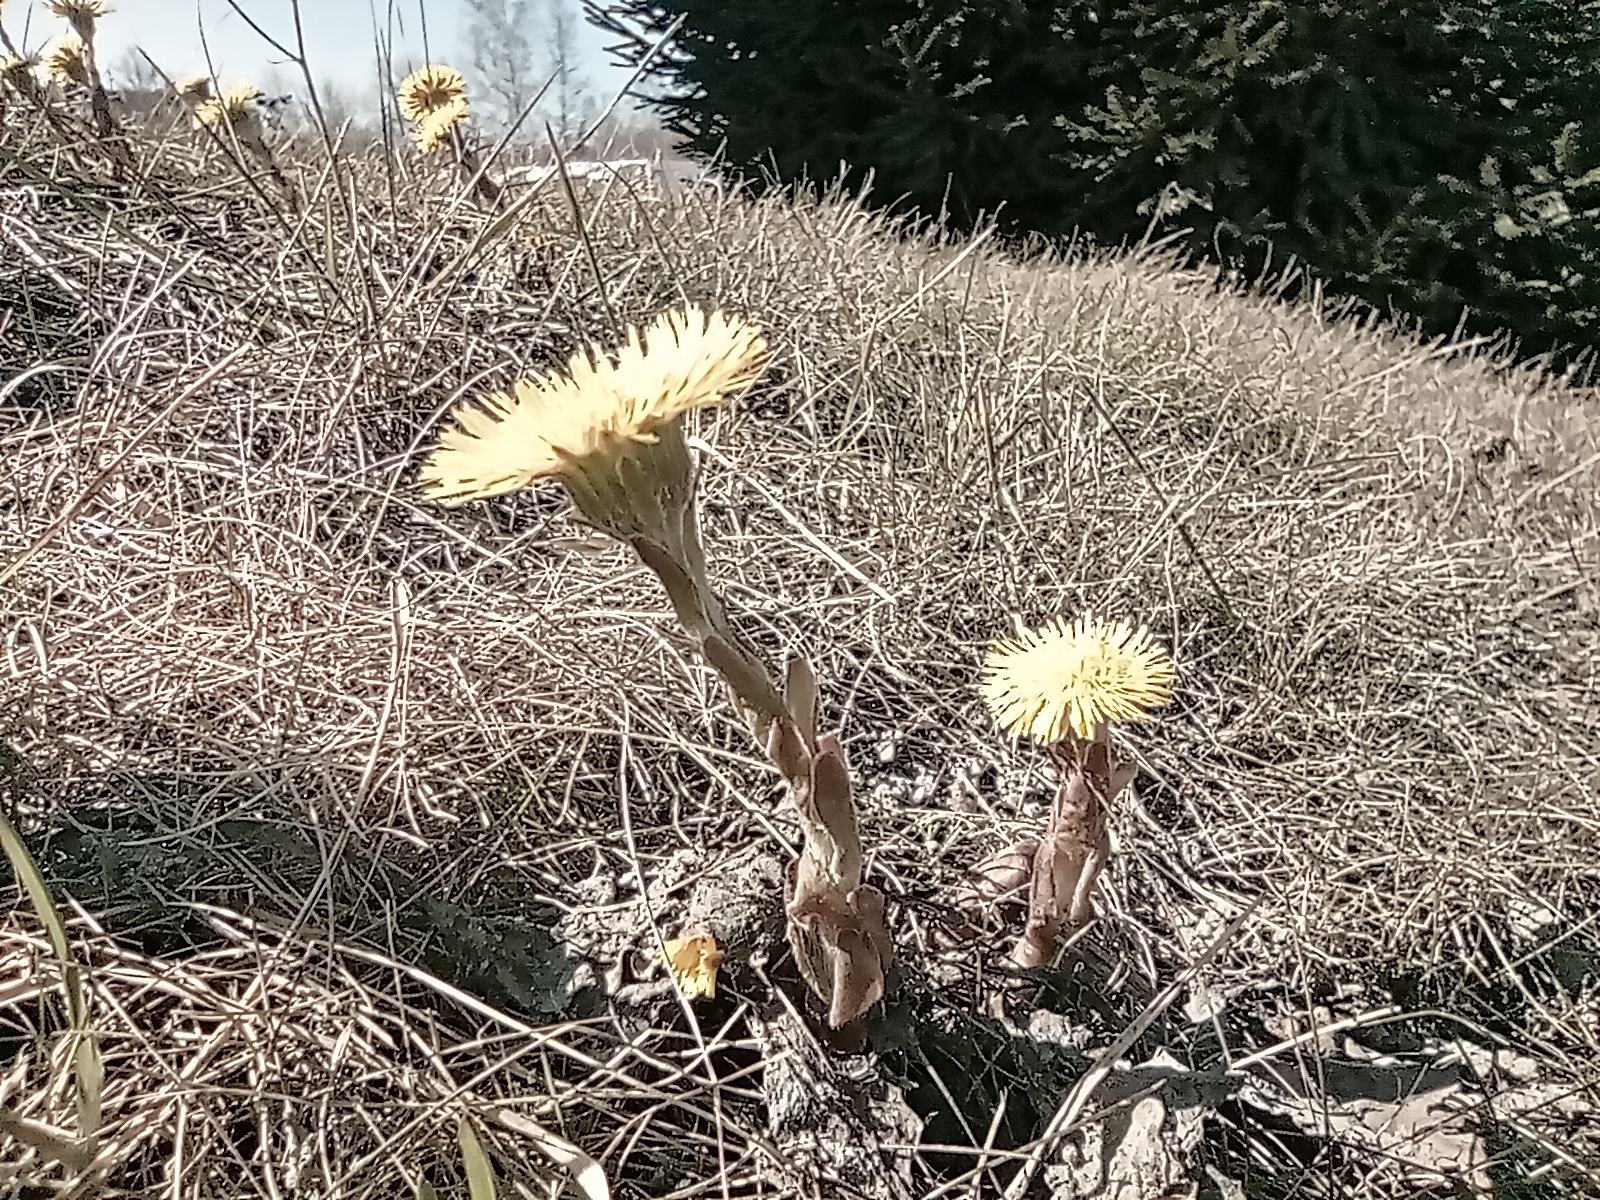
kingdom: Plantae
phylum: Tracheophyta
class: Magnoliopsida
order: Asterales
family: Asteraceae
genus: Tussilago
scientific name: Tussilago farfara
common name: Coltsfoot
